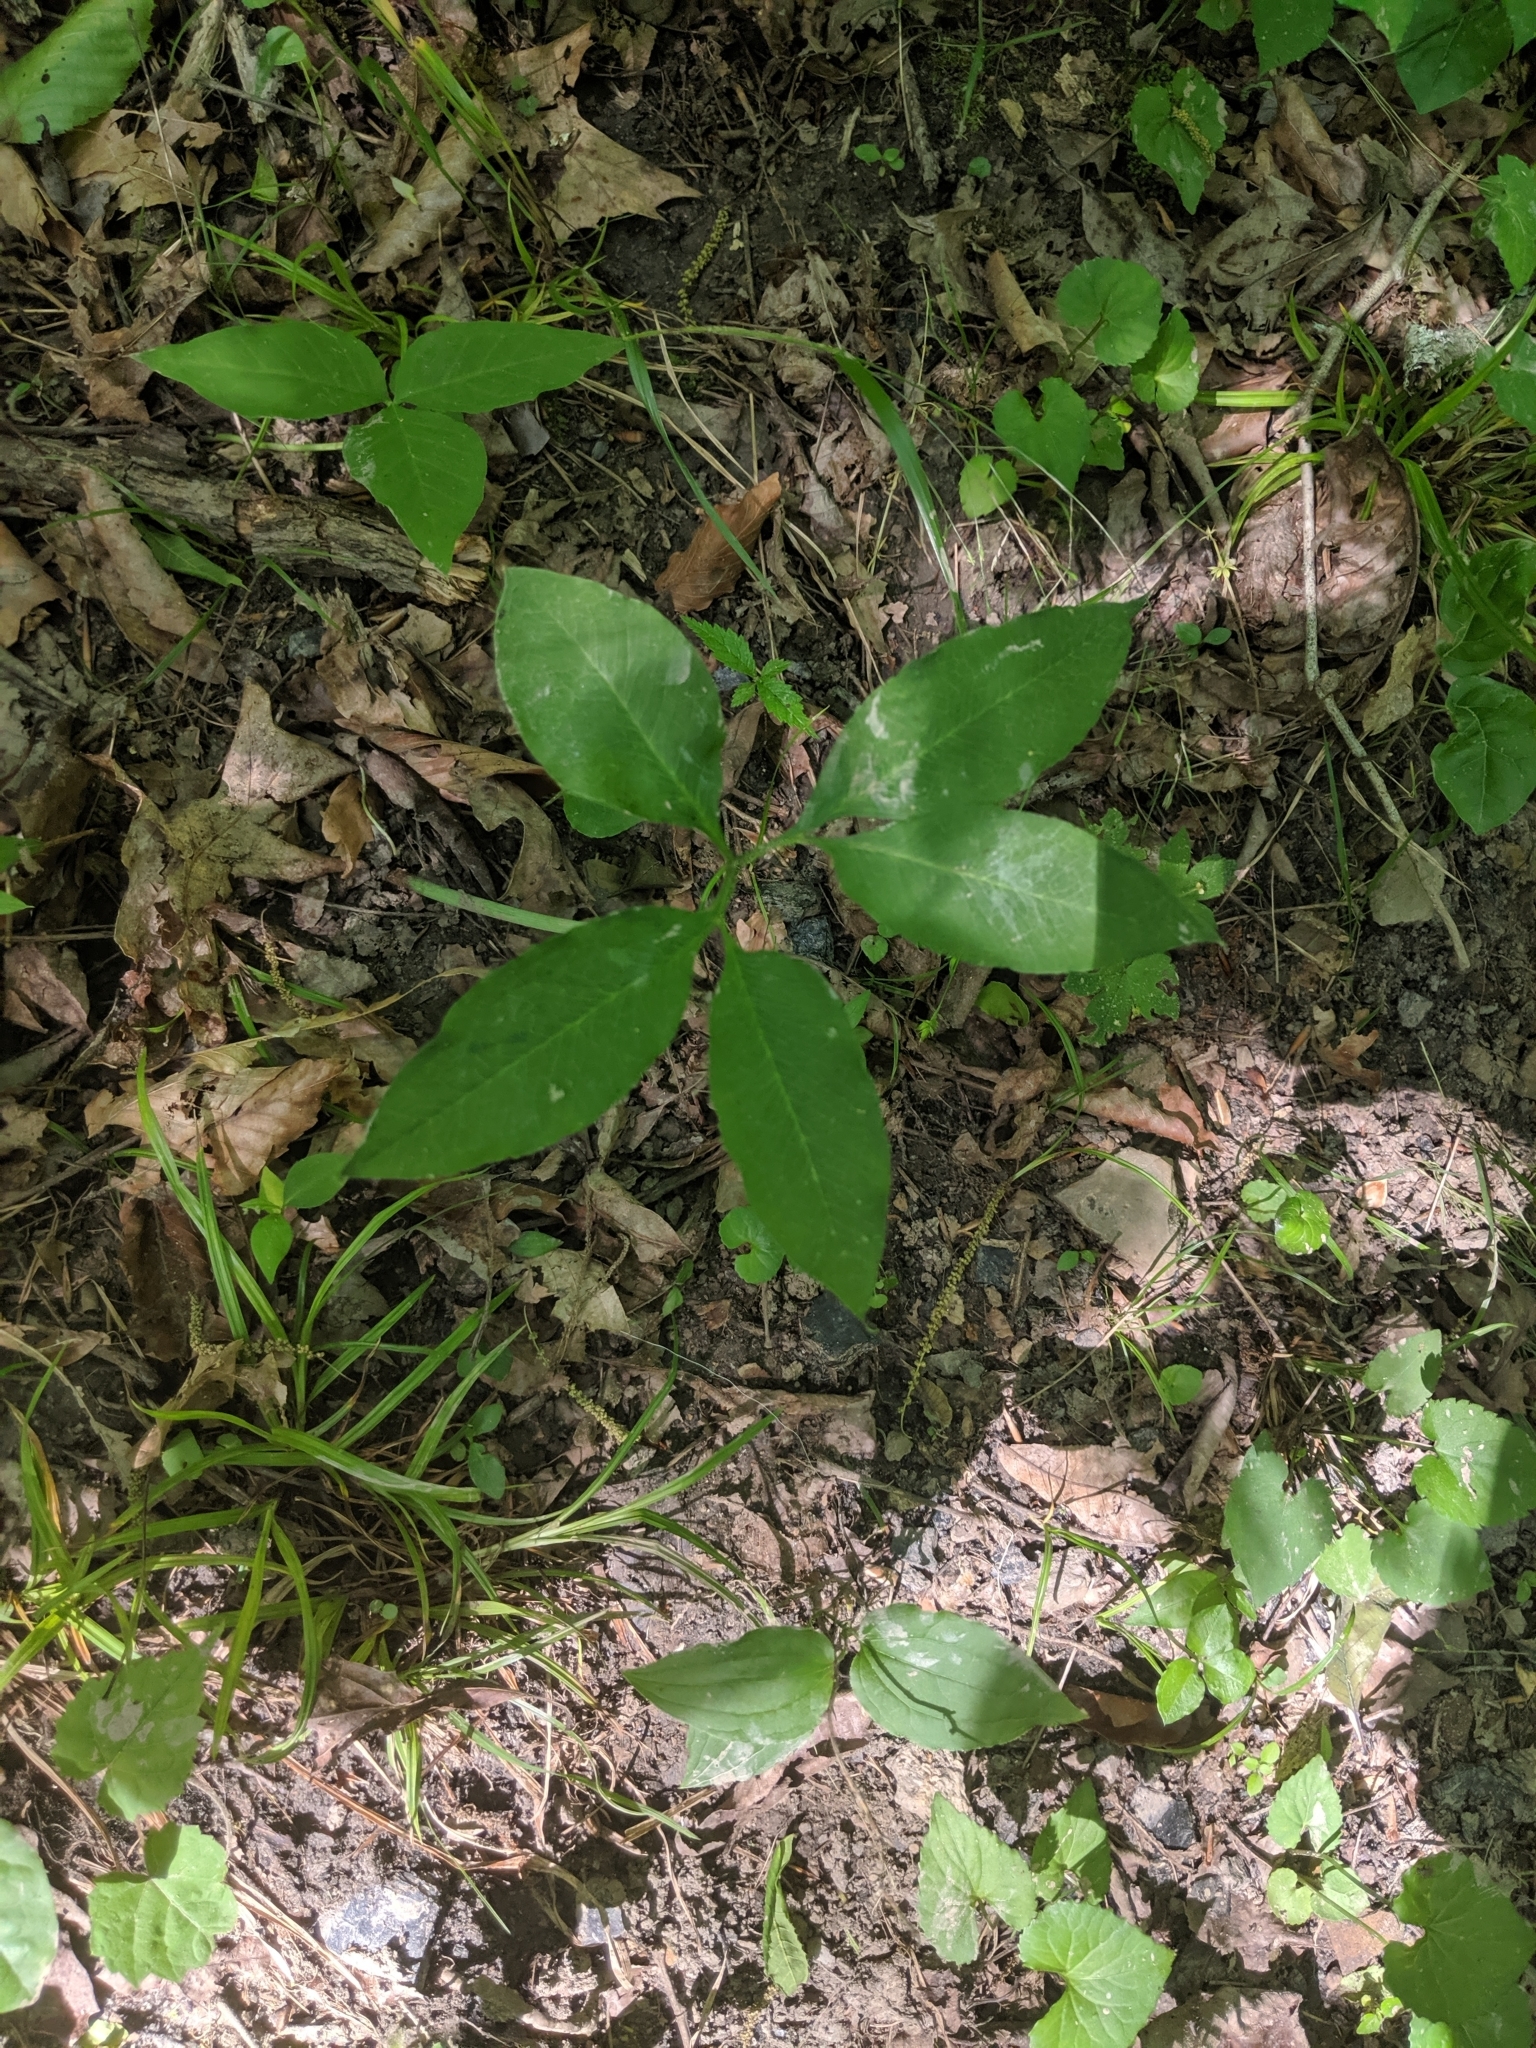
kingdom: Plantae
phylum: Tracheophyta
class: Liliopsida
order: Alismatales
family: Araceae
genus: Arisaema
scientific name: Arisaema dracontium
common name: Dragon-arum
